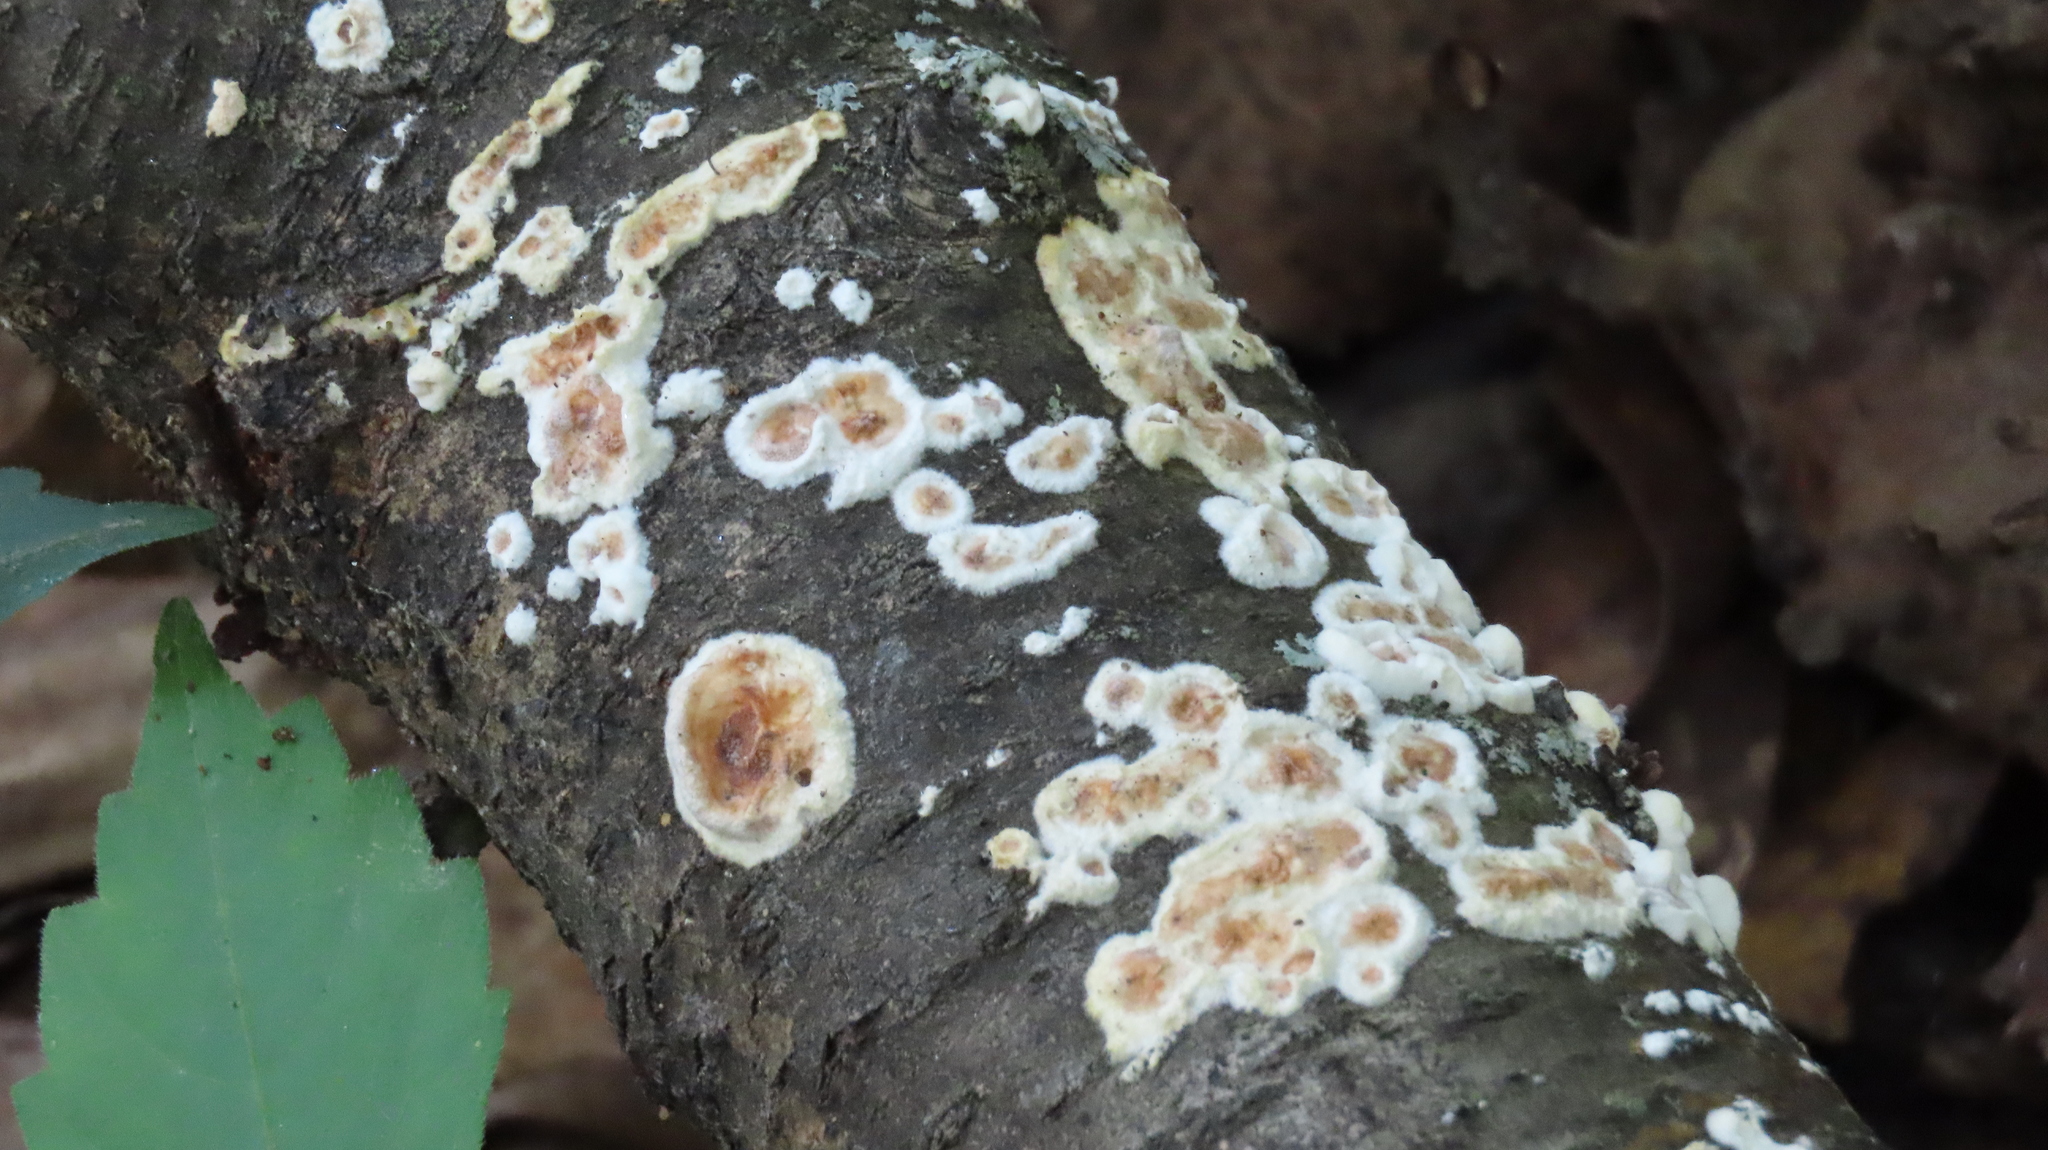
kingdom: Fungi
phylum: Basidiomycota
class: Agaricomycetes
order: Russulales
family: Peniophoraceae
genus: Peniophora
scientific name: Peniophora albobadia
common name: Giraffe spots
